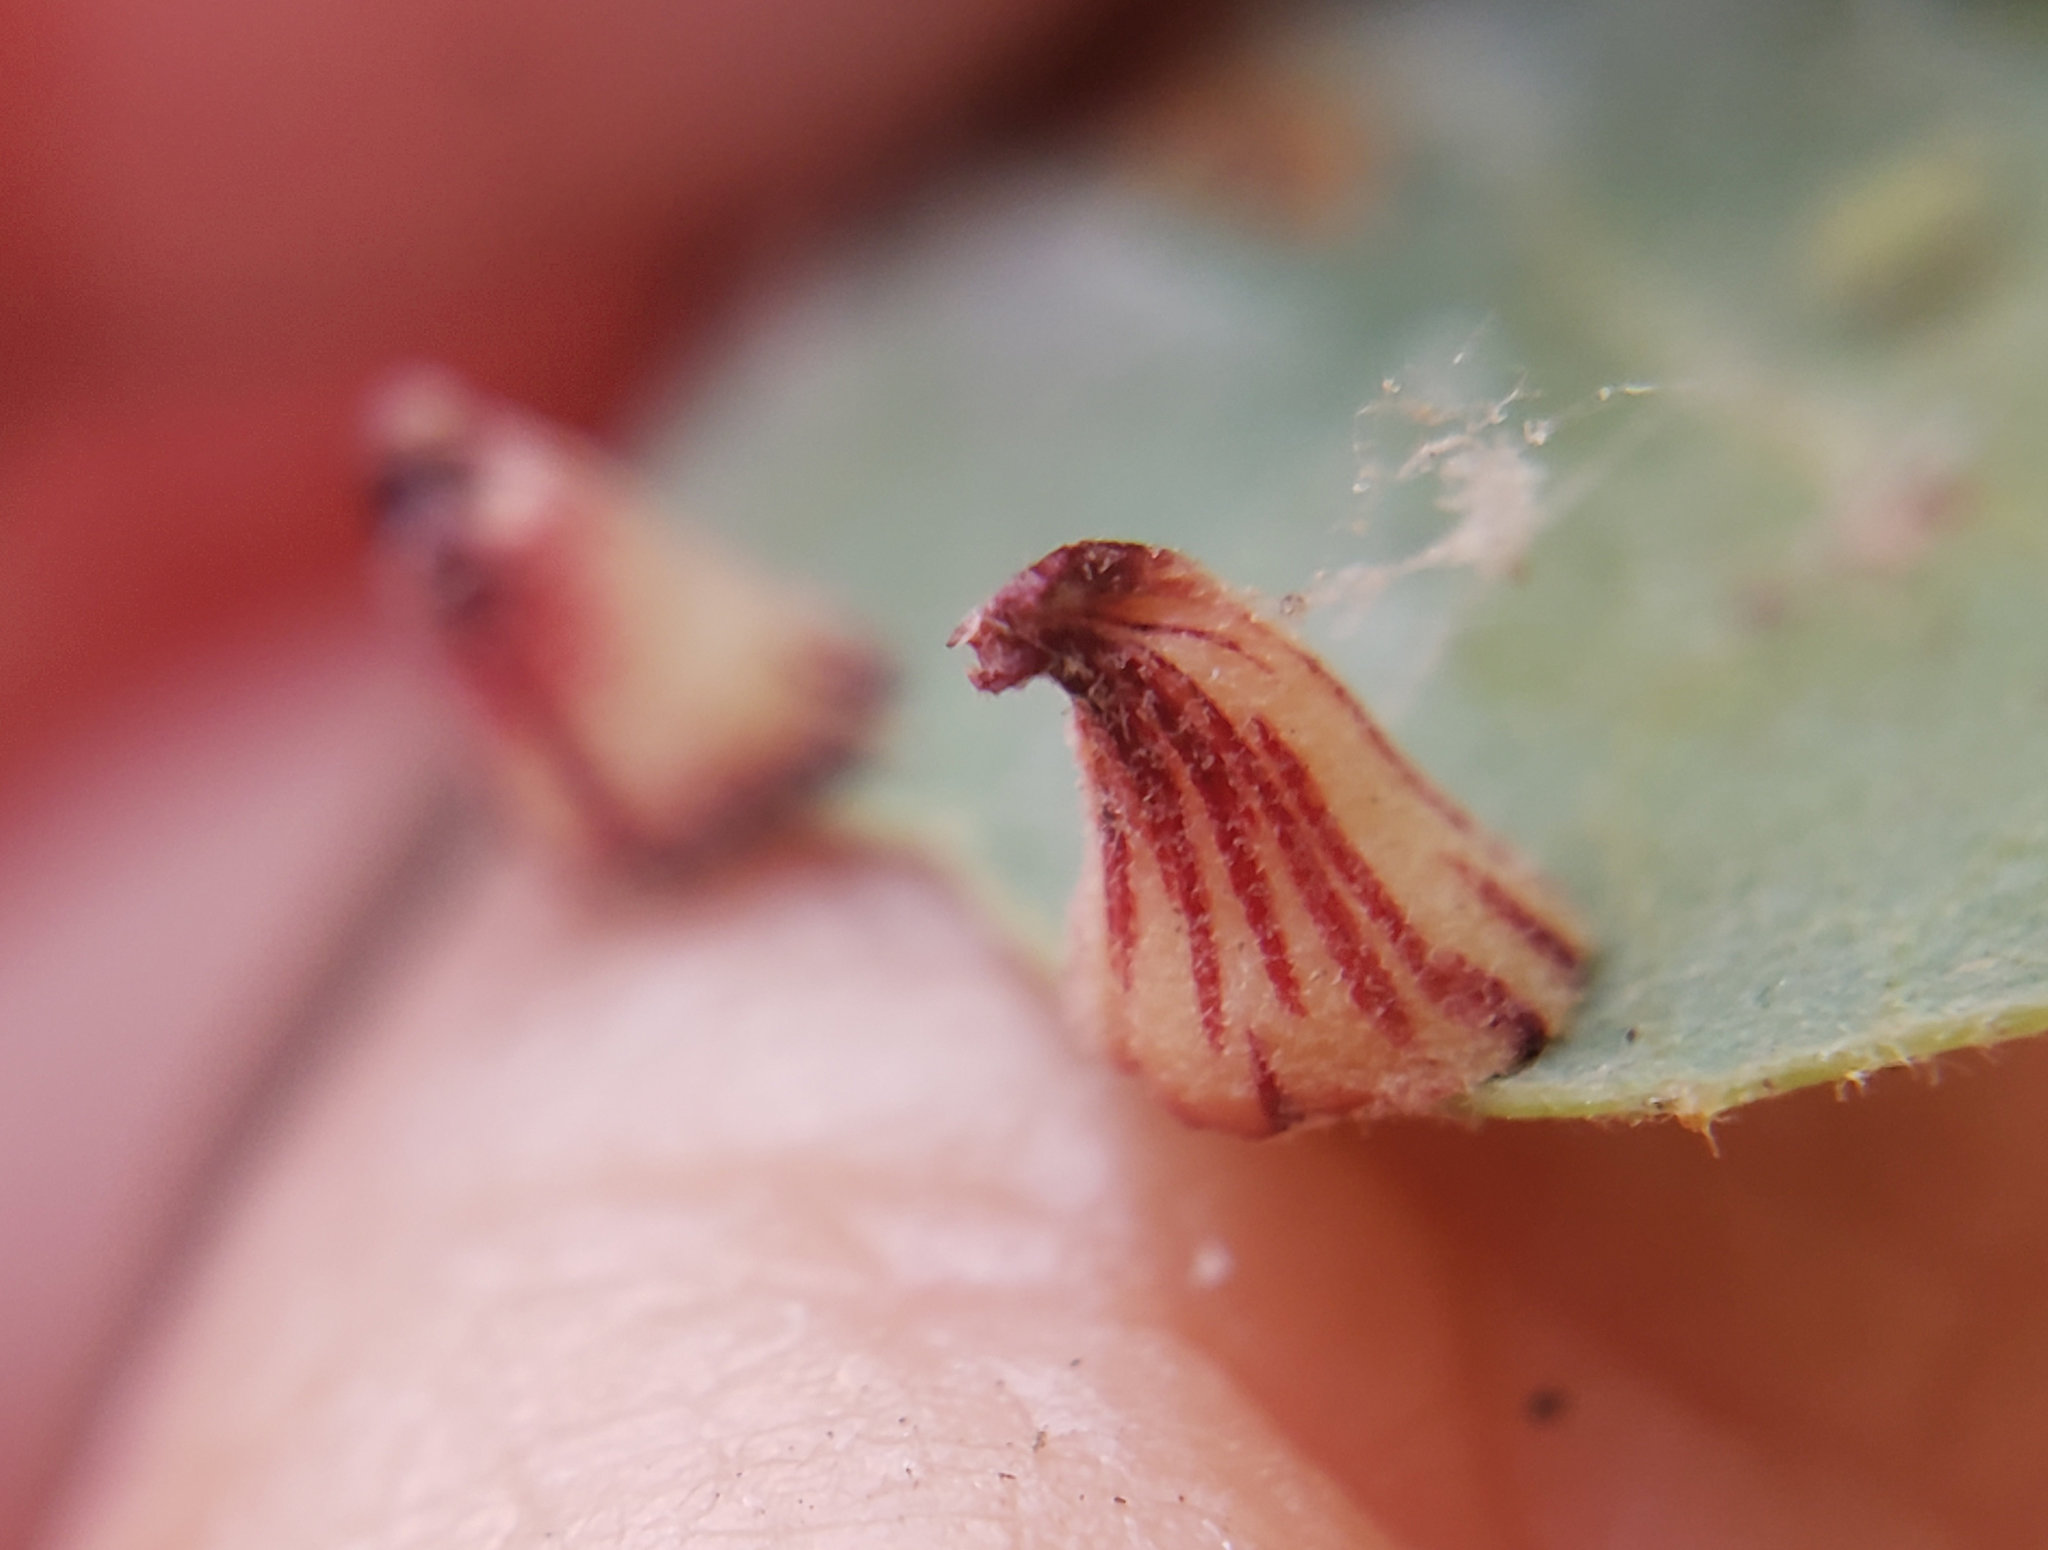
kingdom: Animalia
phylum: Arthropoda
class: Insecta
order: Hymenoptera
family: Cynipidae
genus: Andricus
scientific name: Andricus
